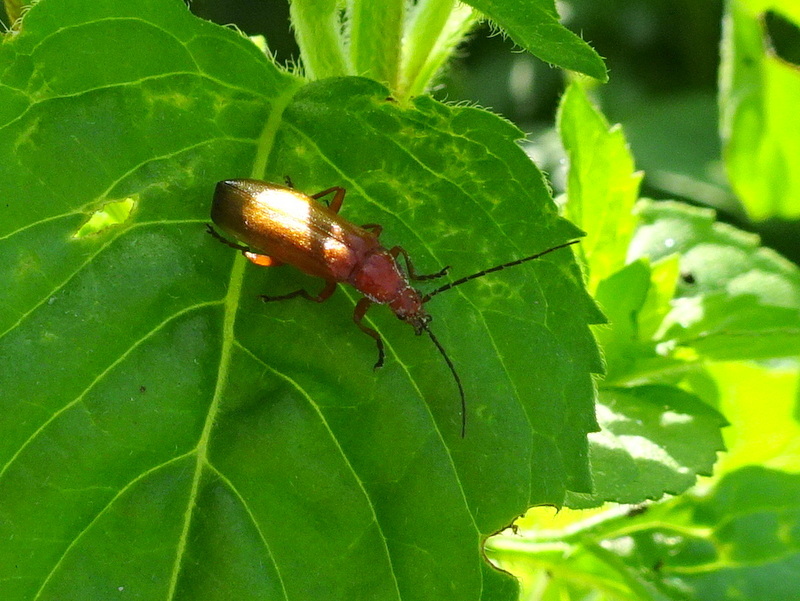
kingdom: Animalia
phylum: Arthropoda
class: Insecta
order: Coleoptera
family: Cantharidae
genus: Rhagonycha
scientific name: Rhagonycha fulva
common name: Common red soldier beetle
